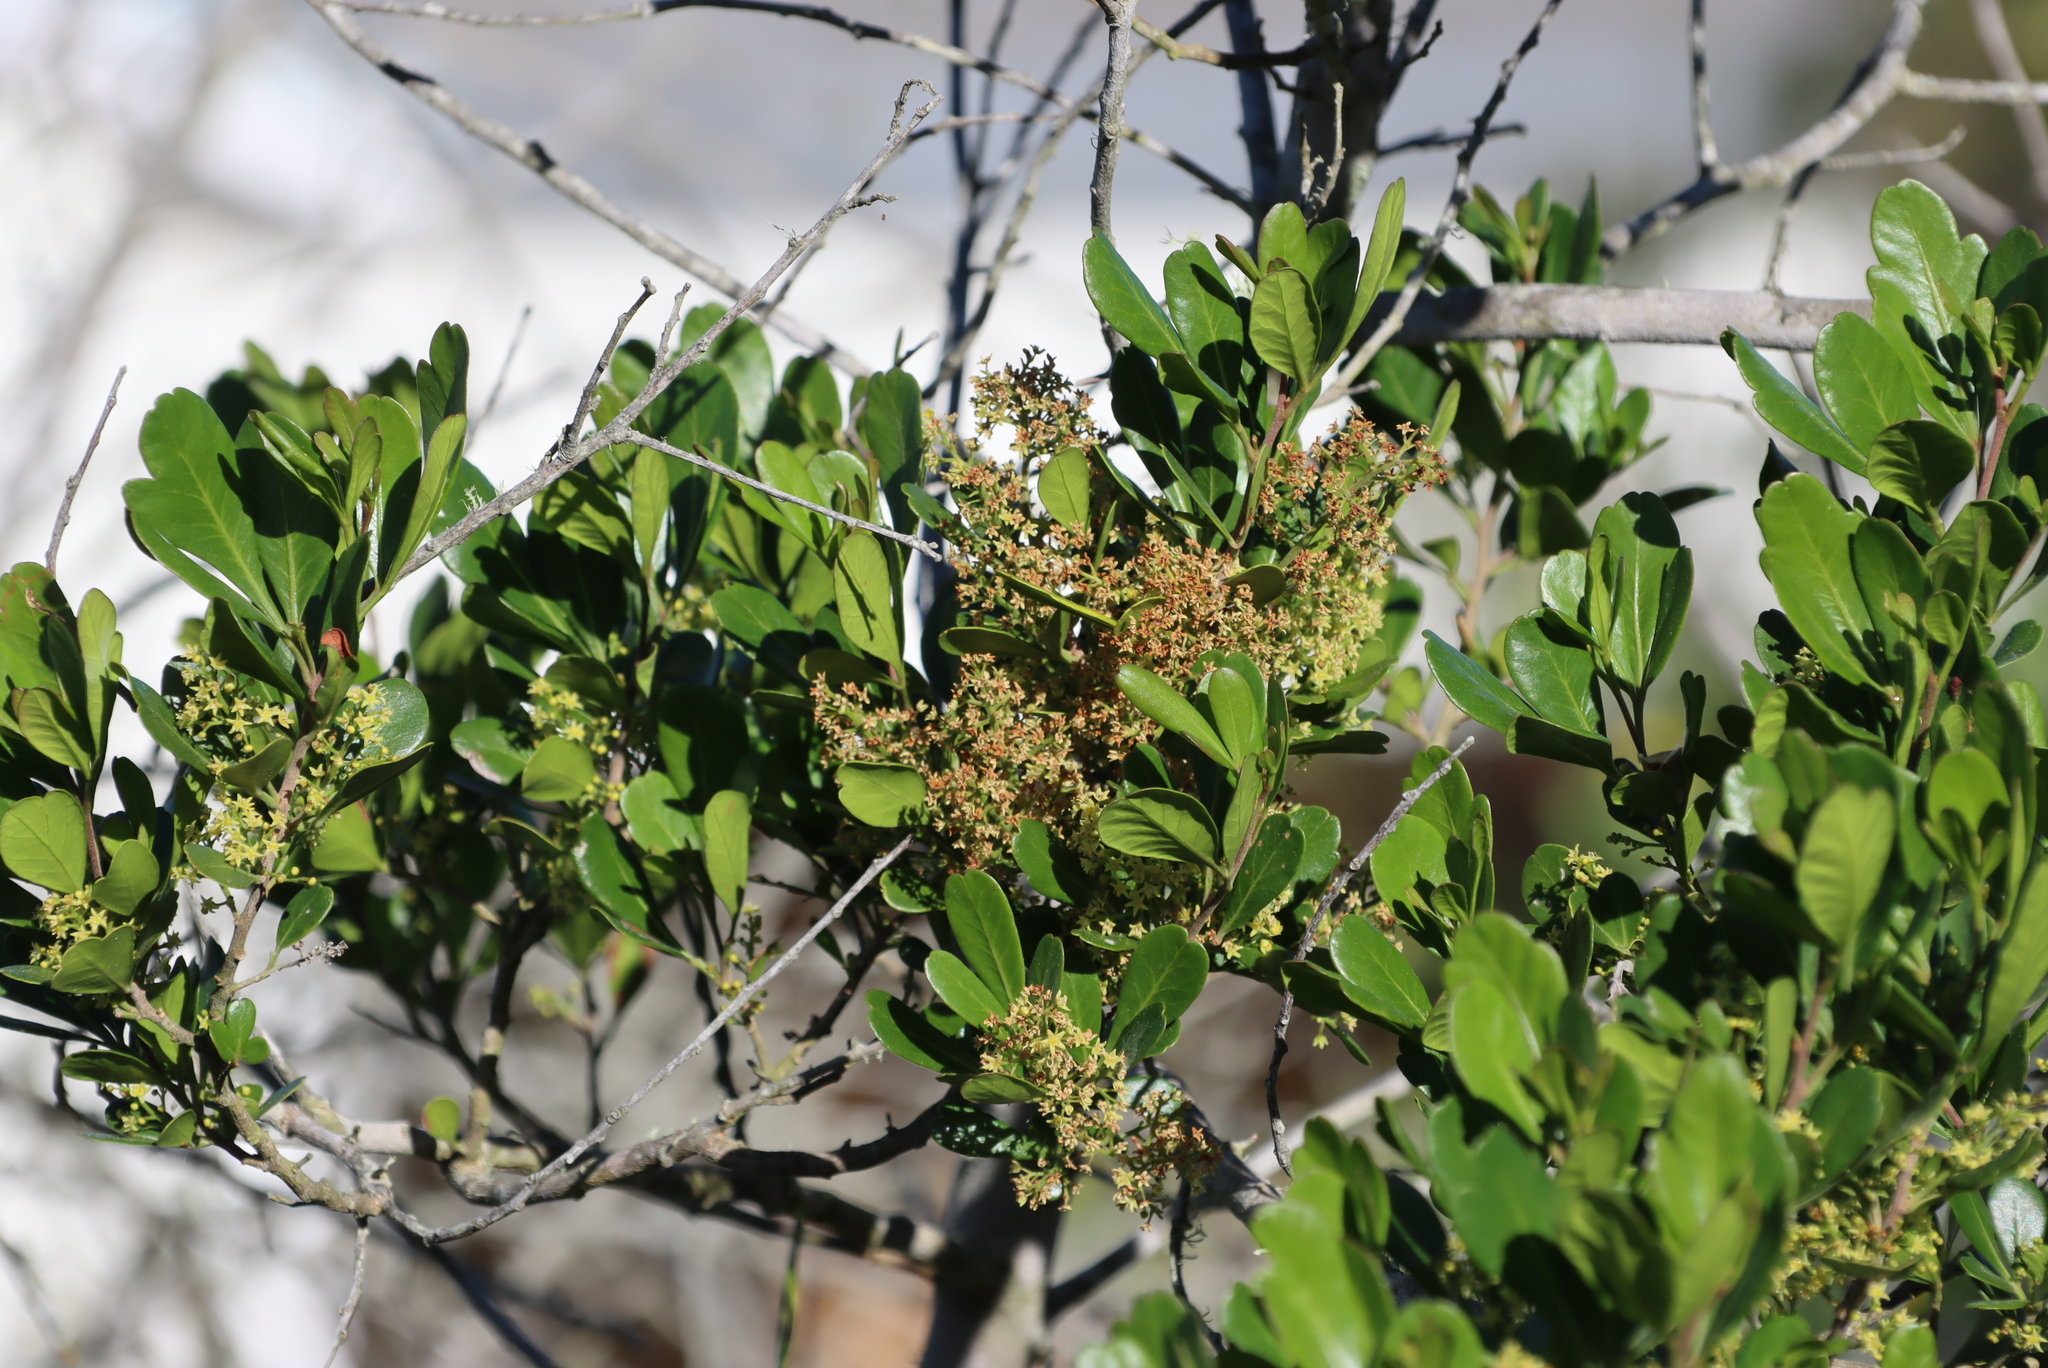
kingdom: Plantae
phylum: Tracheophyta
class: Magnoliopsida
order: Sapindales
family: Anacardiaceae
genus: Searsia
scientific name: Searsia lucida
